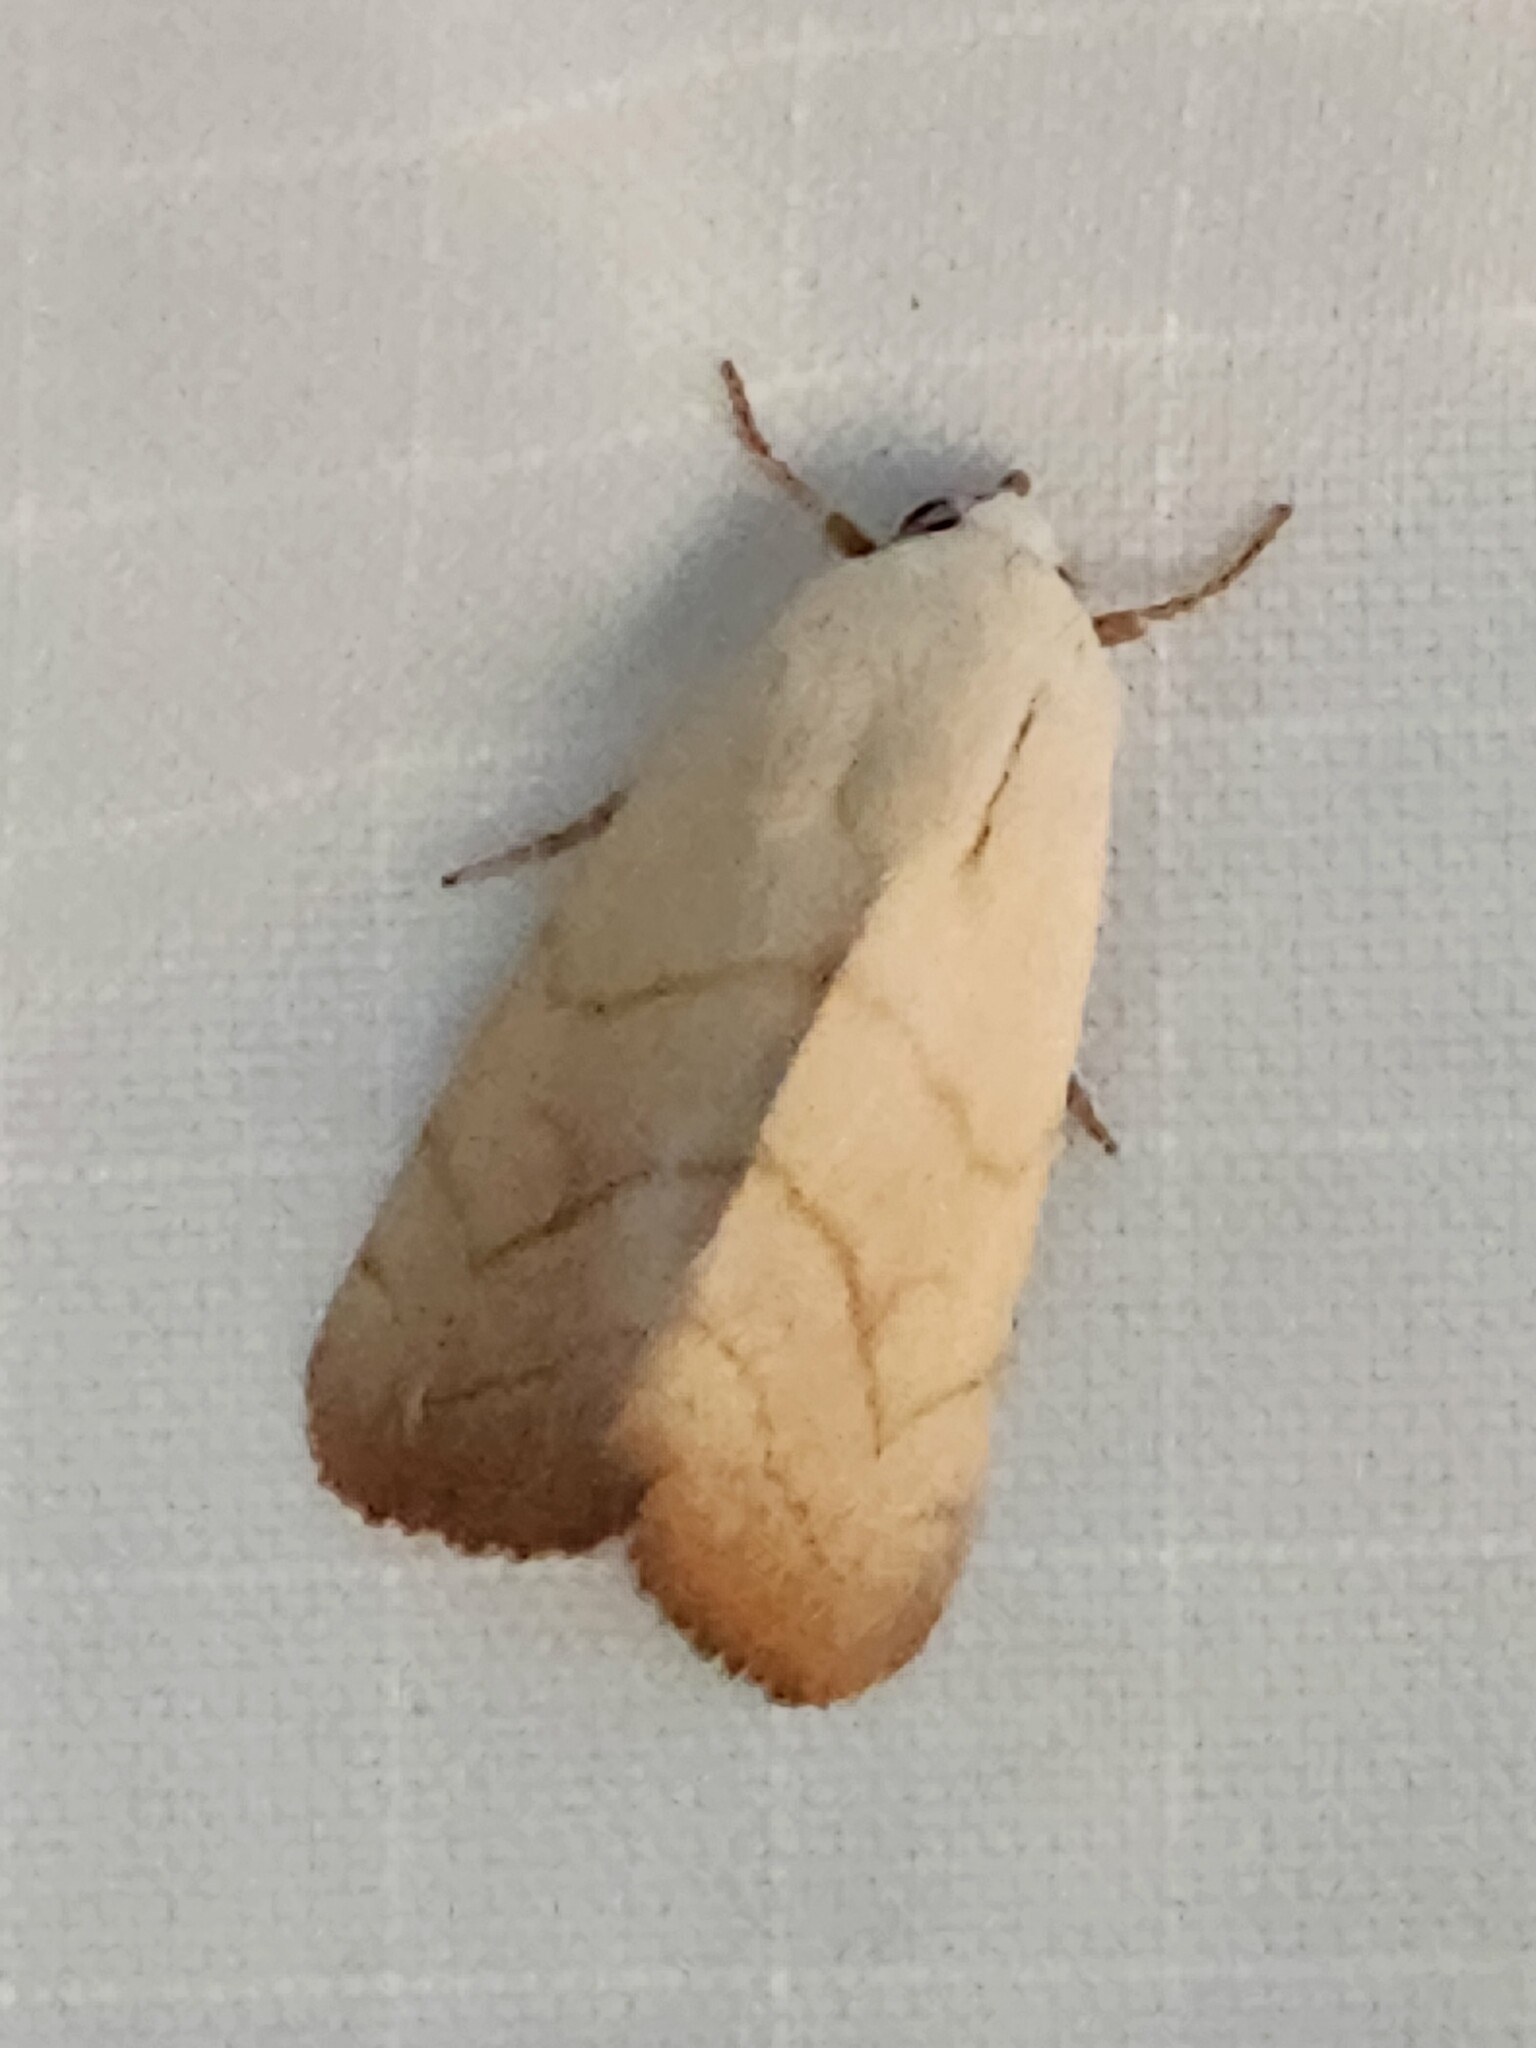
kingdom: Animalia
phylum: Arthropoda
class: Insecta
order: Lepidoptera
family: Noctuidae
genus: Bagisara
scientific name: Bagisara buxea
